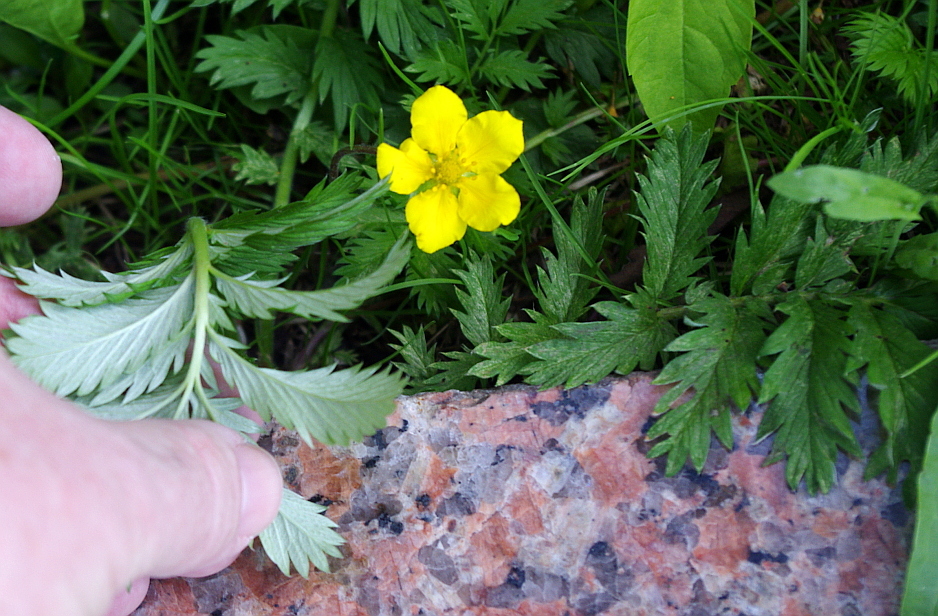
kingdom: Plantae
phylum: Tracheophyta
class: Magnoliopsida
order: Rosales
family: Rosaceae
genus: Argentina
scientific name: Argentina anserina
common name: Common silverweed
